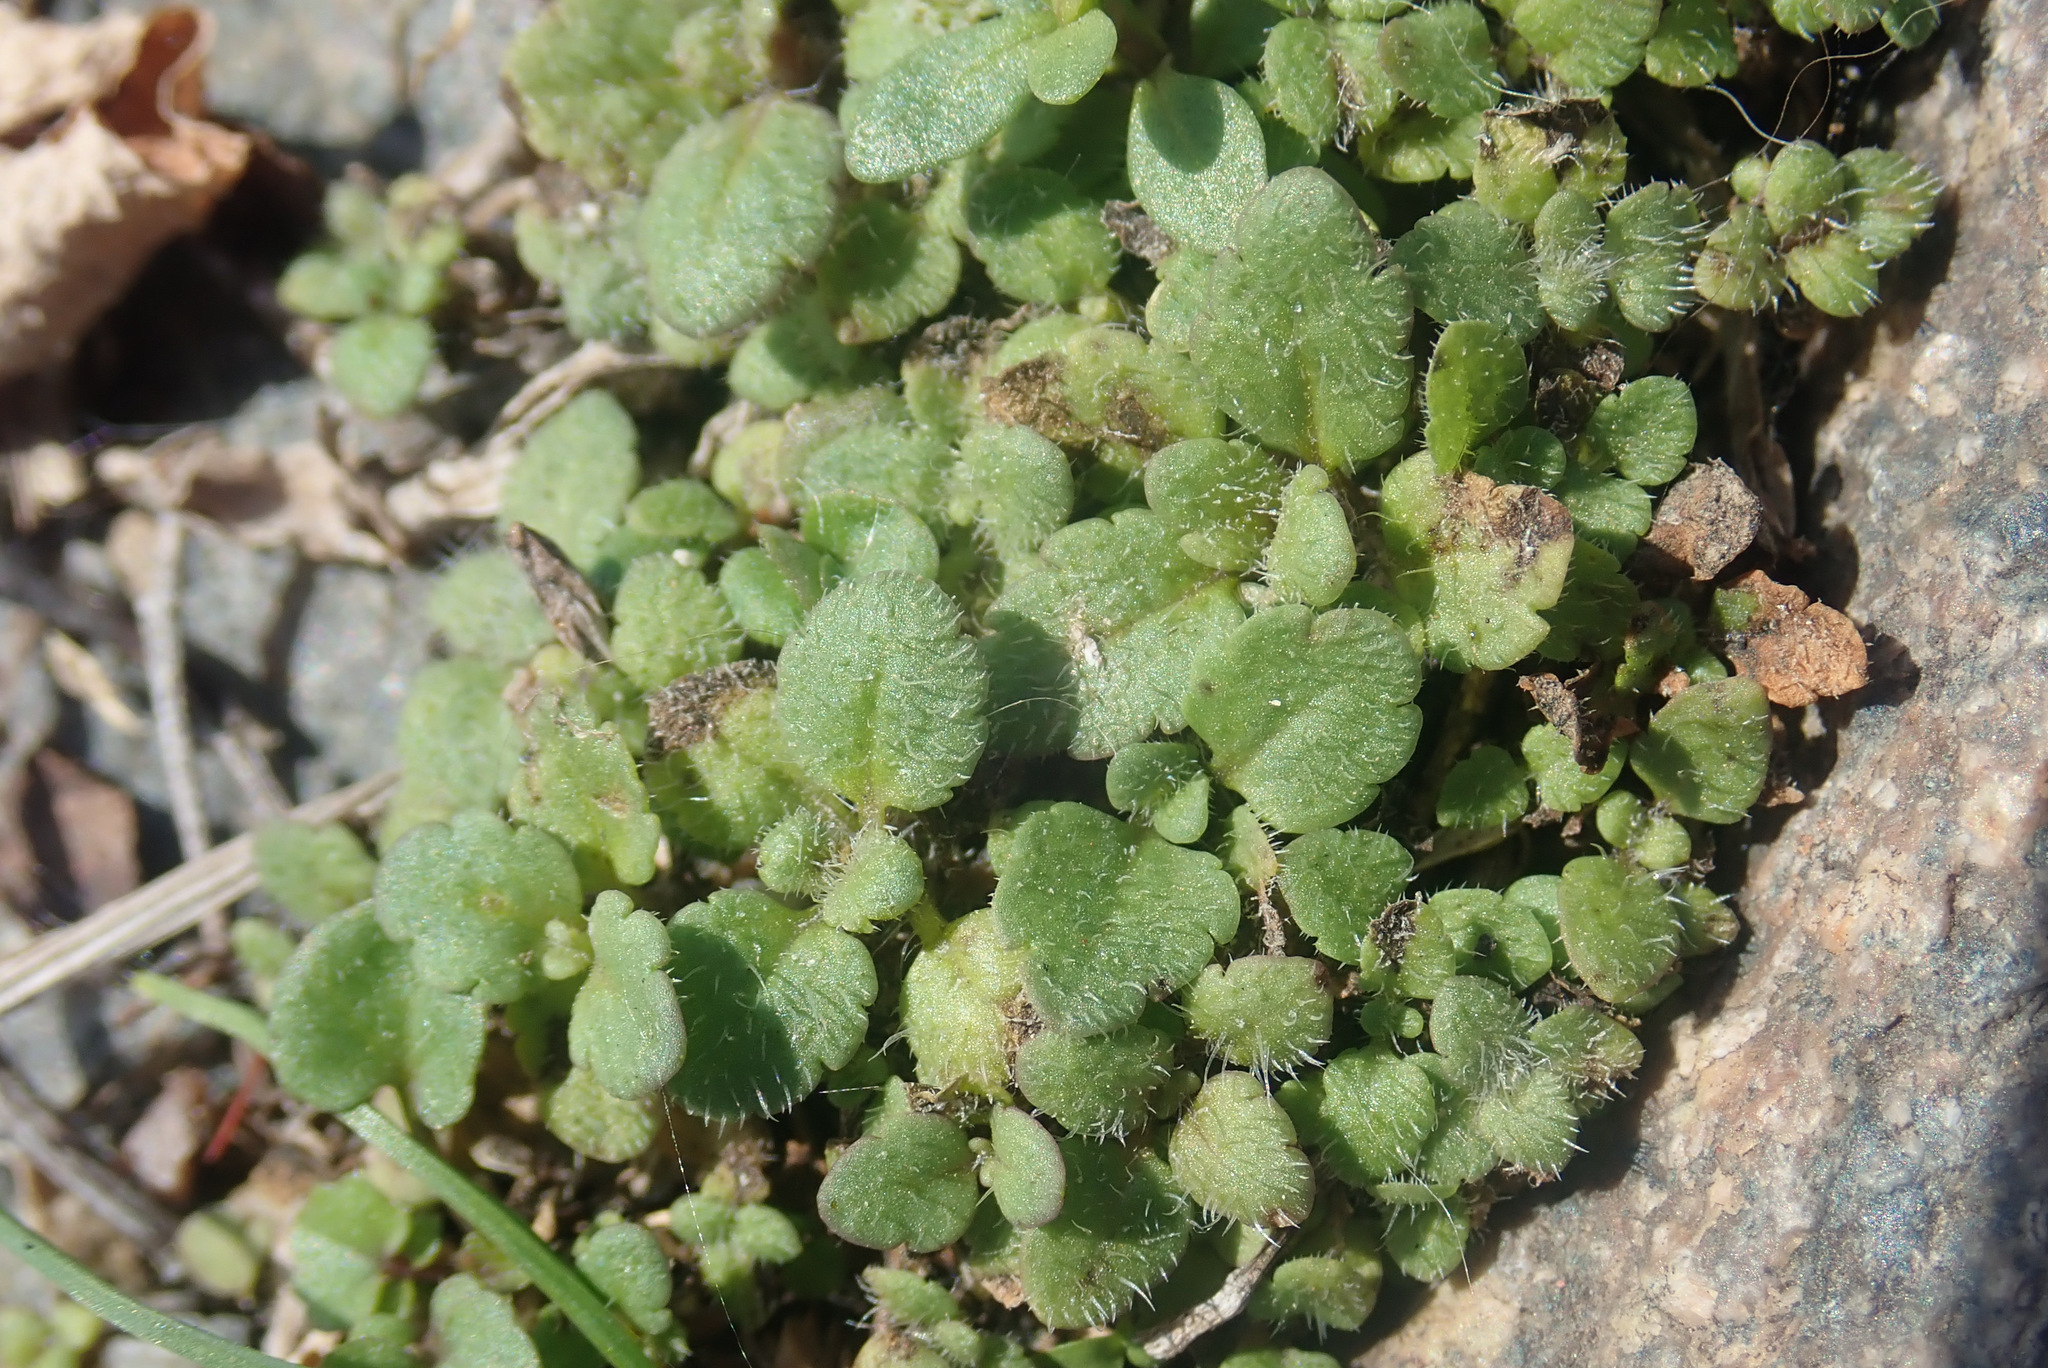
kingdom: Plantae
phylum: Tracheophyta
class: Magnoliopsida
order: Lamiales
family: Plantaginaceae
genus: Veronica
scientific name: Veronica arvensis
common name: Corn speedwell
